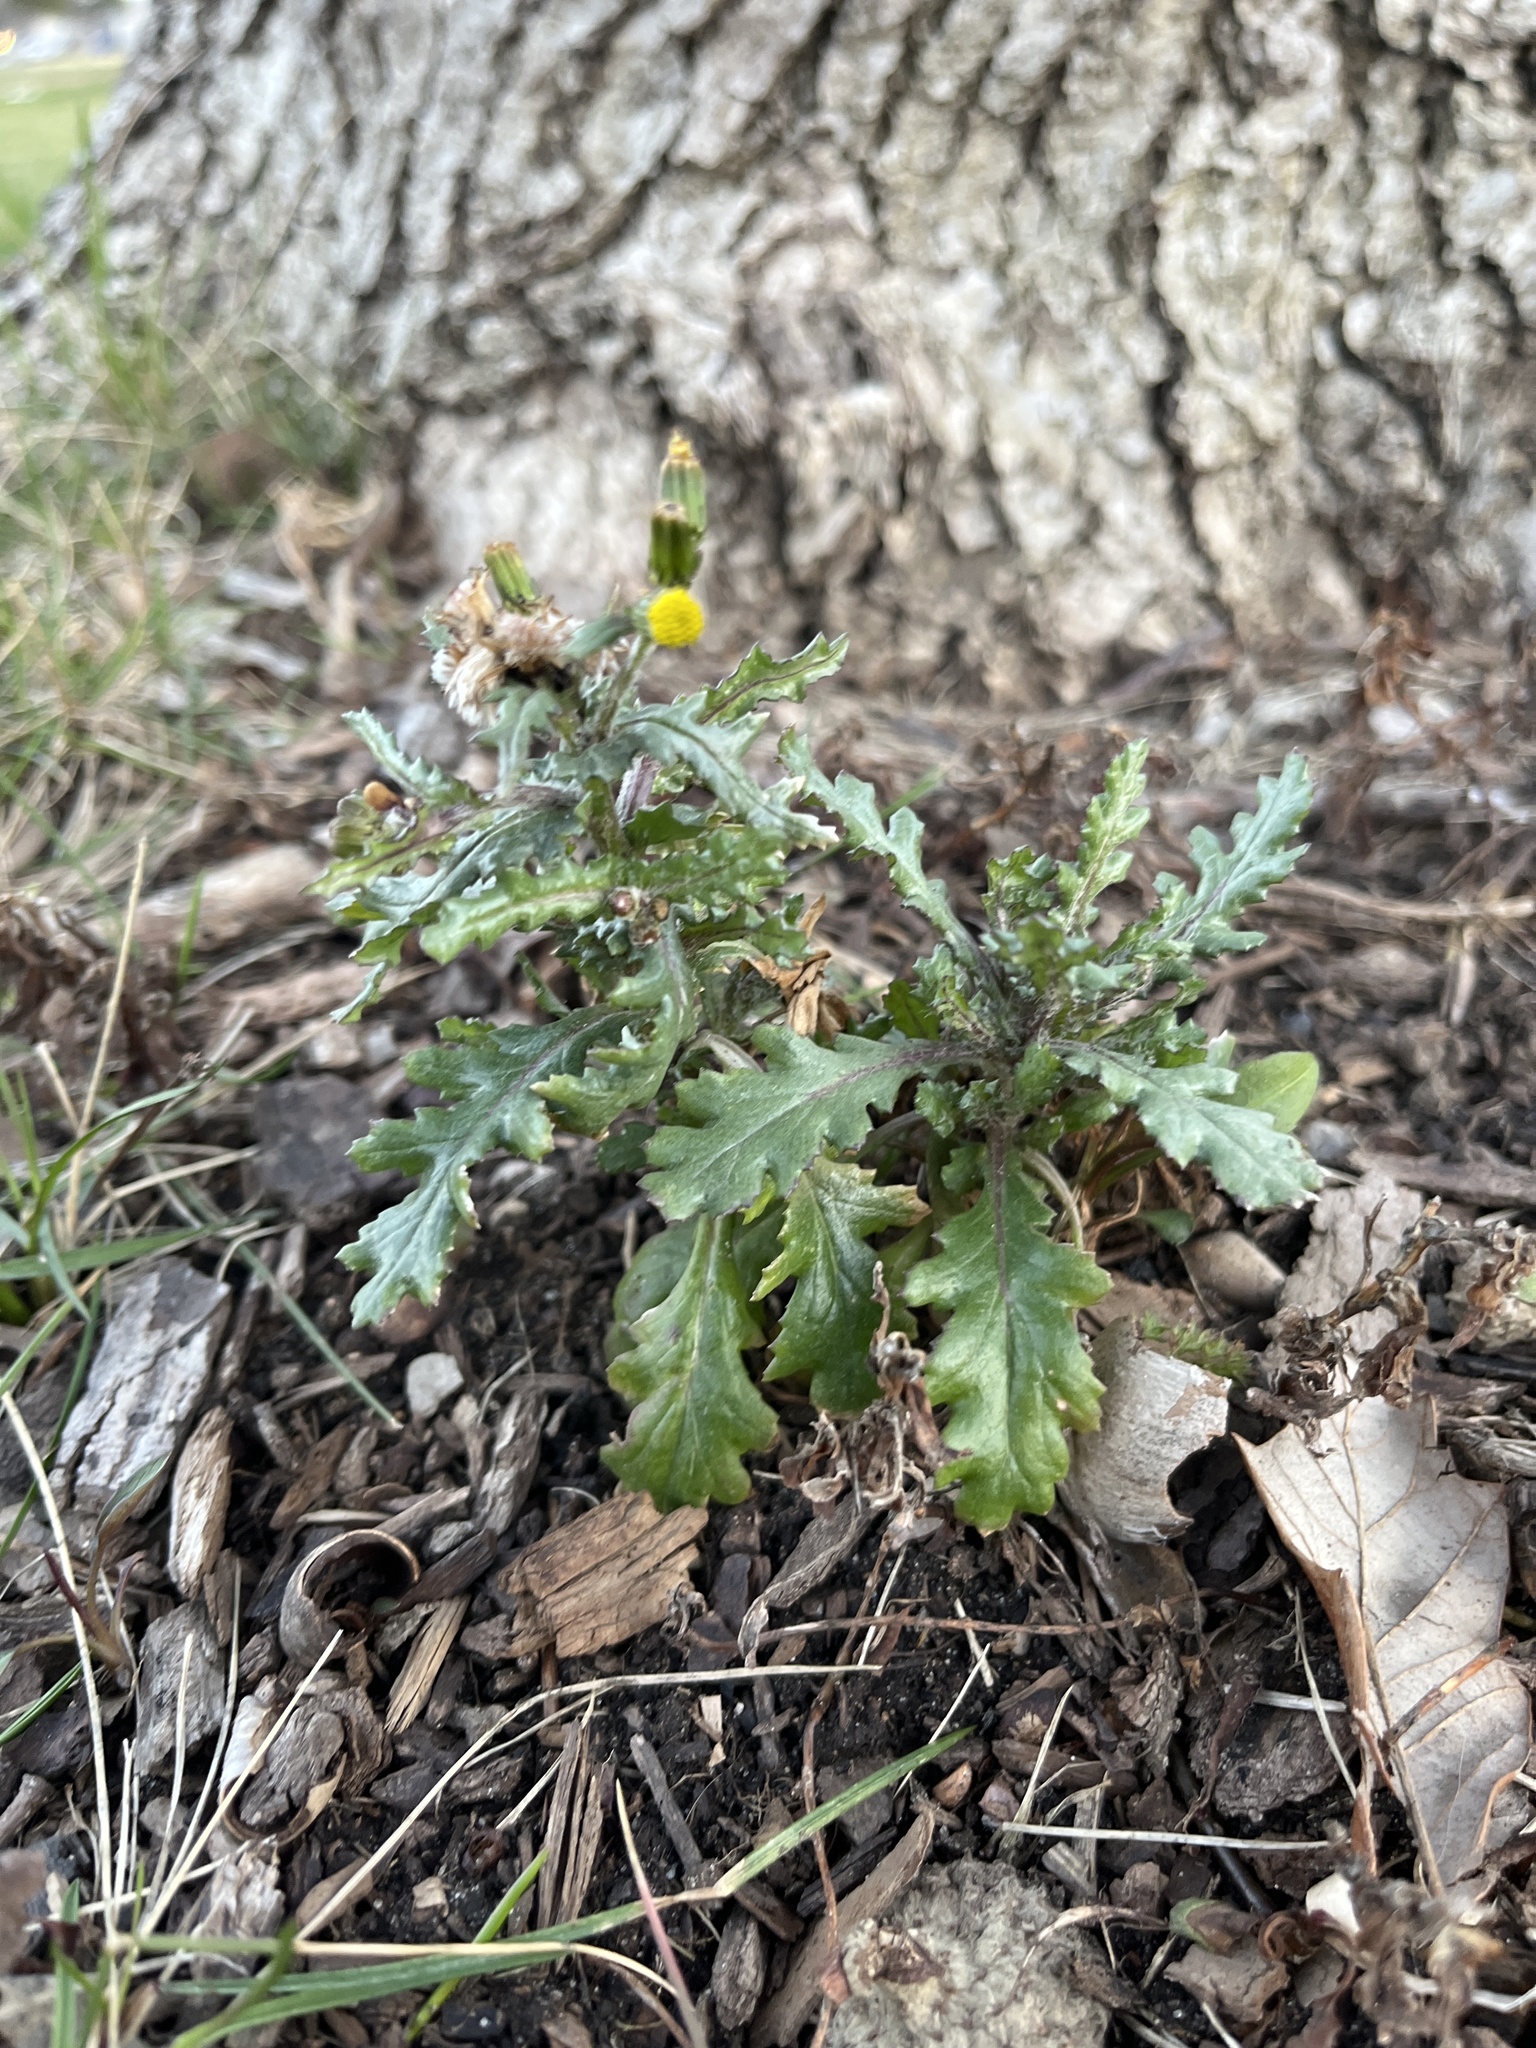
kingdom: Plantae
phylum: Tracheophyta
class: Magnoliopsida
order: Asterales
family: Asteraceae
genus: Senecio
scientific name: Senecio vulgaris
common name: Old-man-in-the-spring
